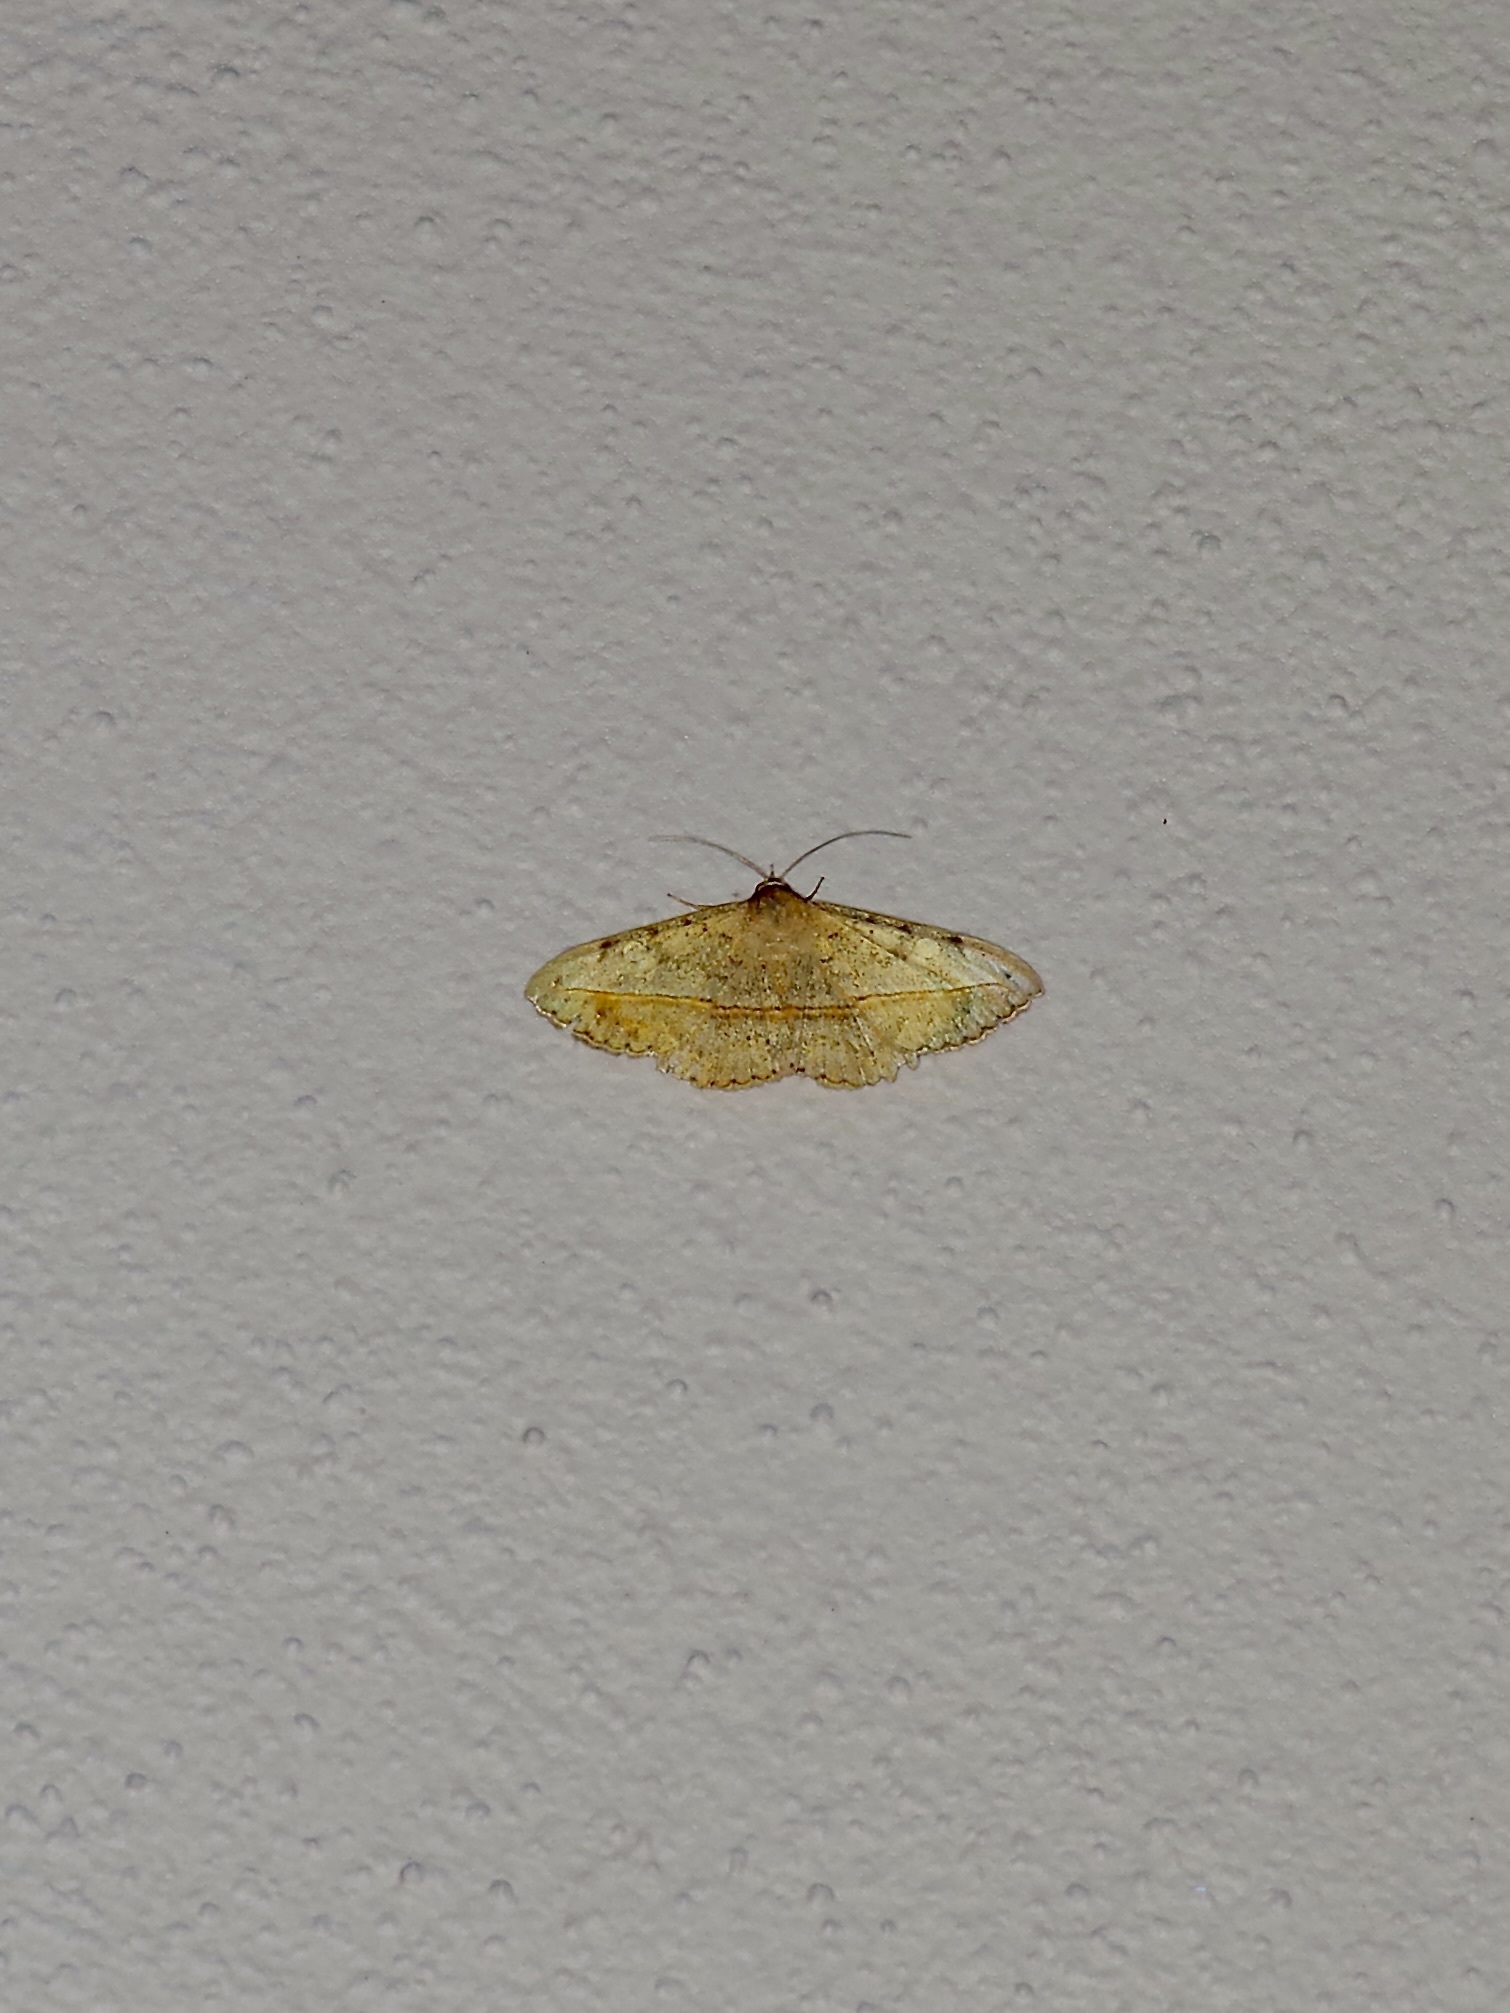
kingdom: Animalia
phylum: Arthropoda
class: Insecta
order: Lepidoptera
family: Erebidae
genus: Anticarsia
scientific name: Anticarsia gemmatalis
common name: Cutworm moth
